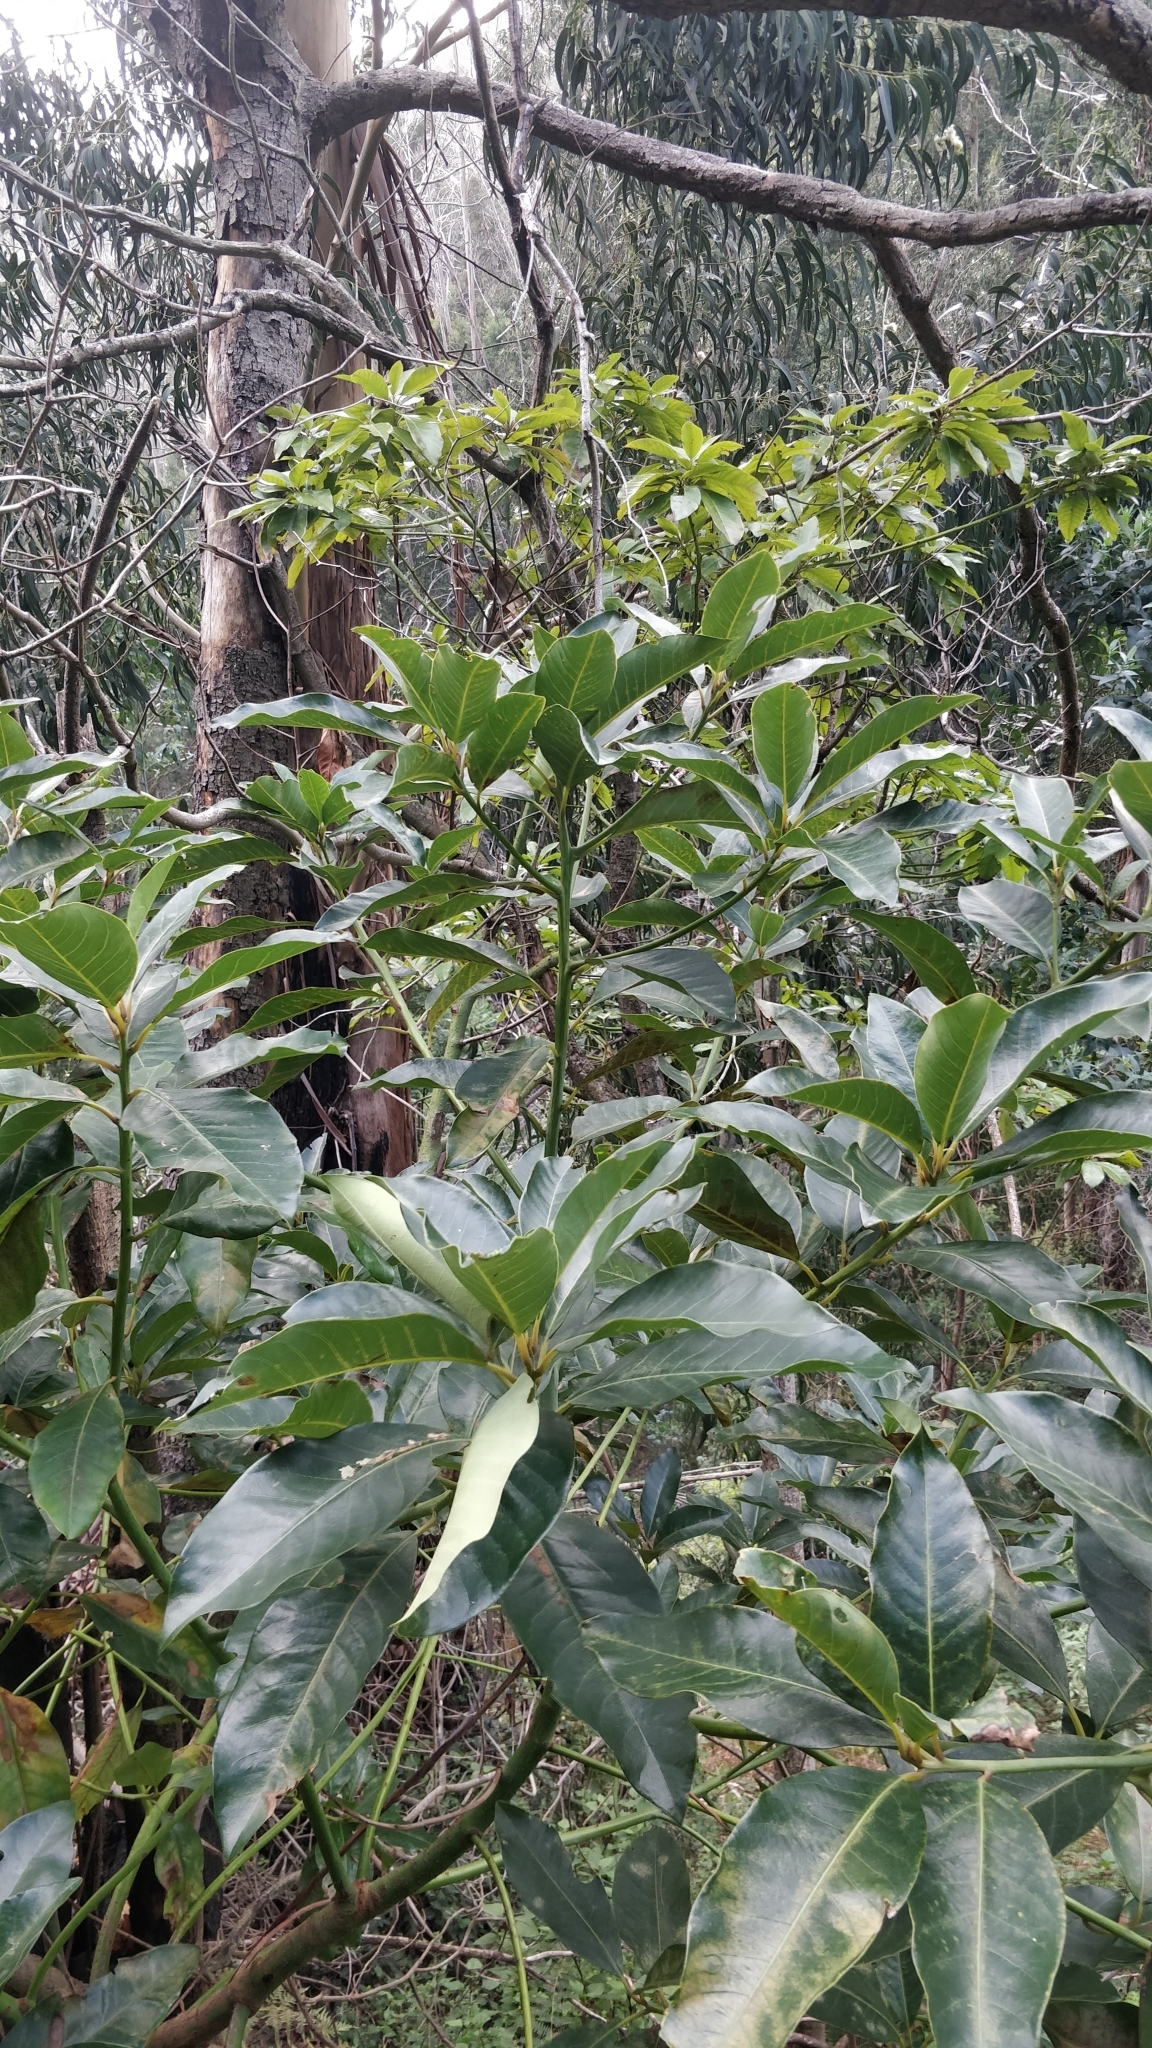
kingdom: Plantae
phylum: Tracheophyta
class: Magnoliopsida
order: Laurales
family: Lauraceae
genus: Persea
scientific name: Persea indica
